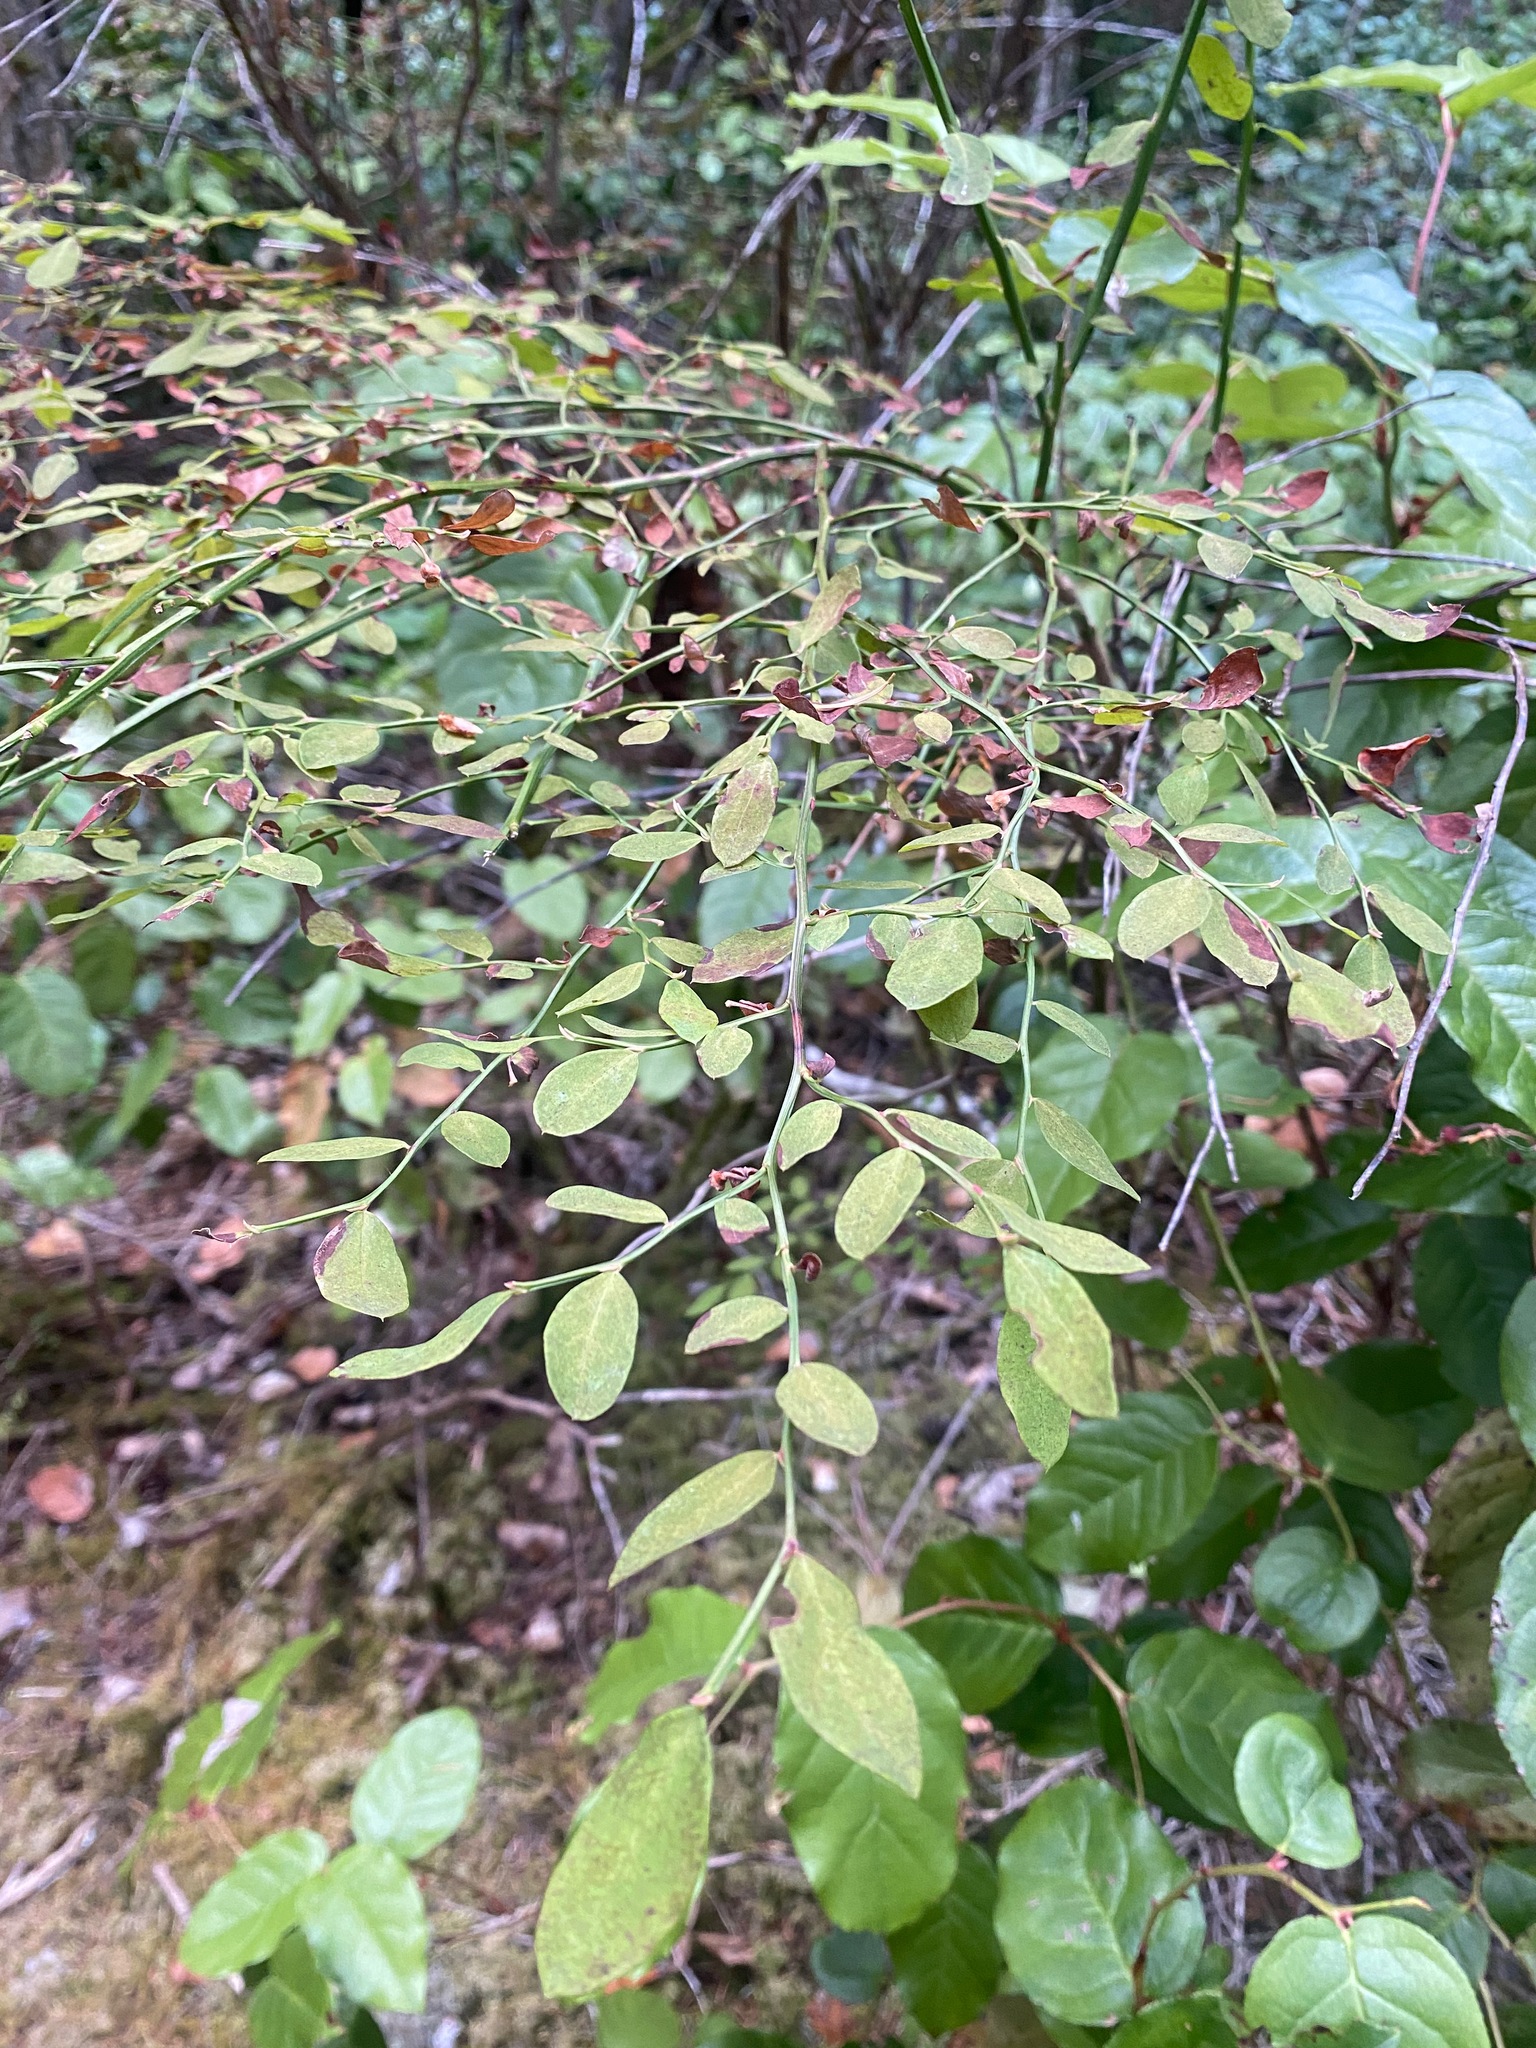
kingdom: Plantae
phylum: Tracheophyta
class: Magnoliopsida
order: Ericales
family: Ericaceae
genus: Vaccinium
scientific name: Vaccinium parvifolium
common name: Red-huckleberry
